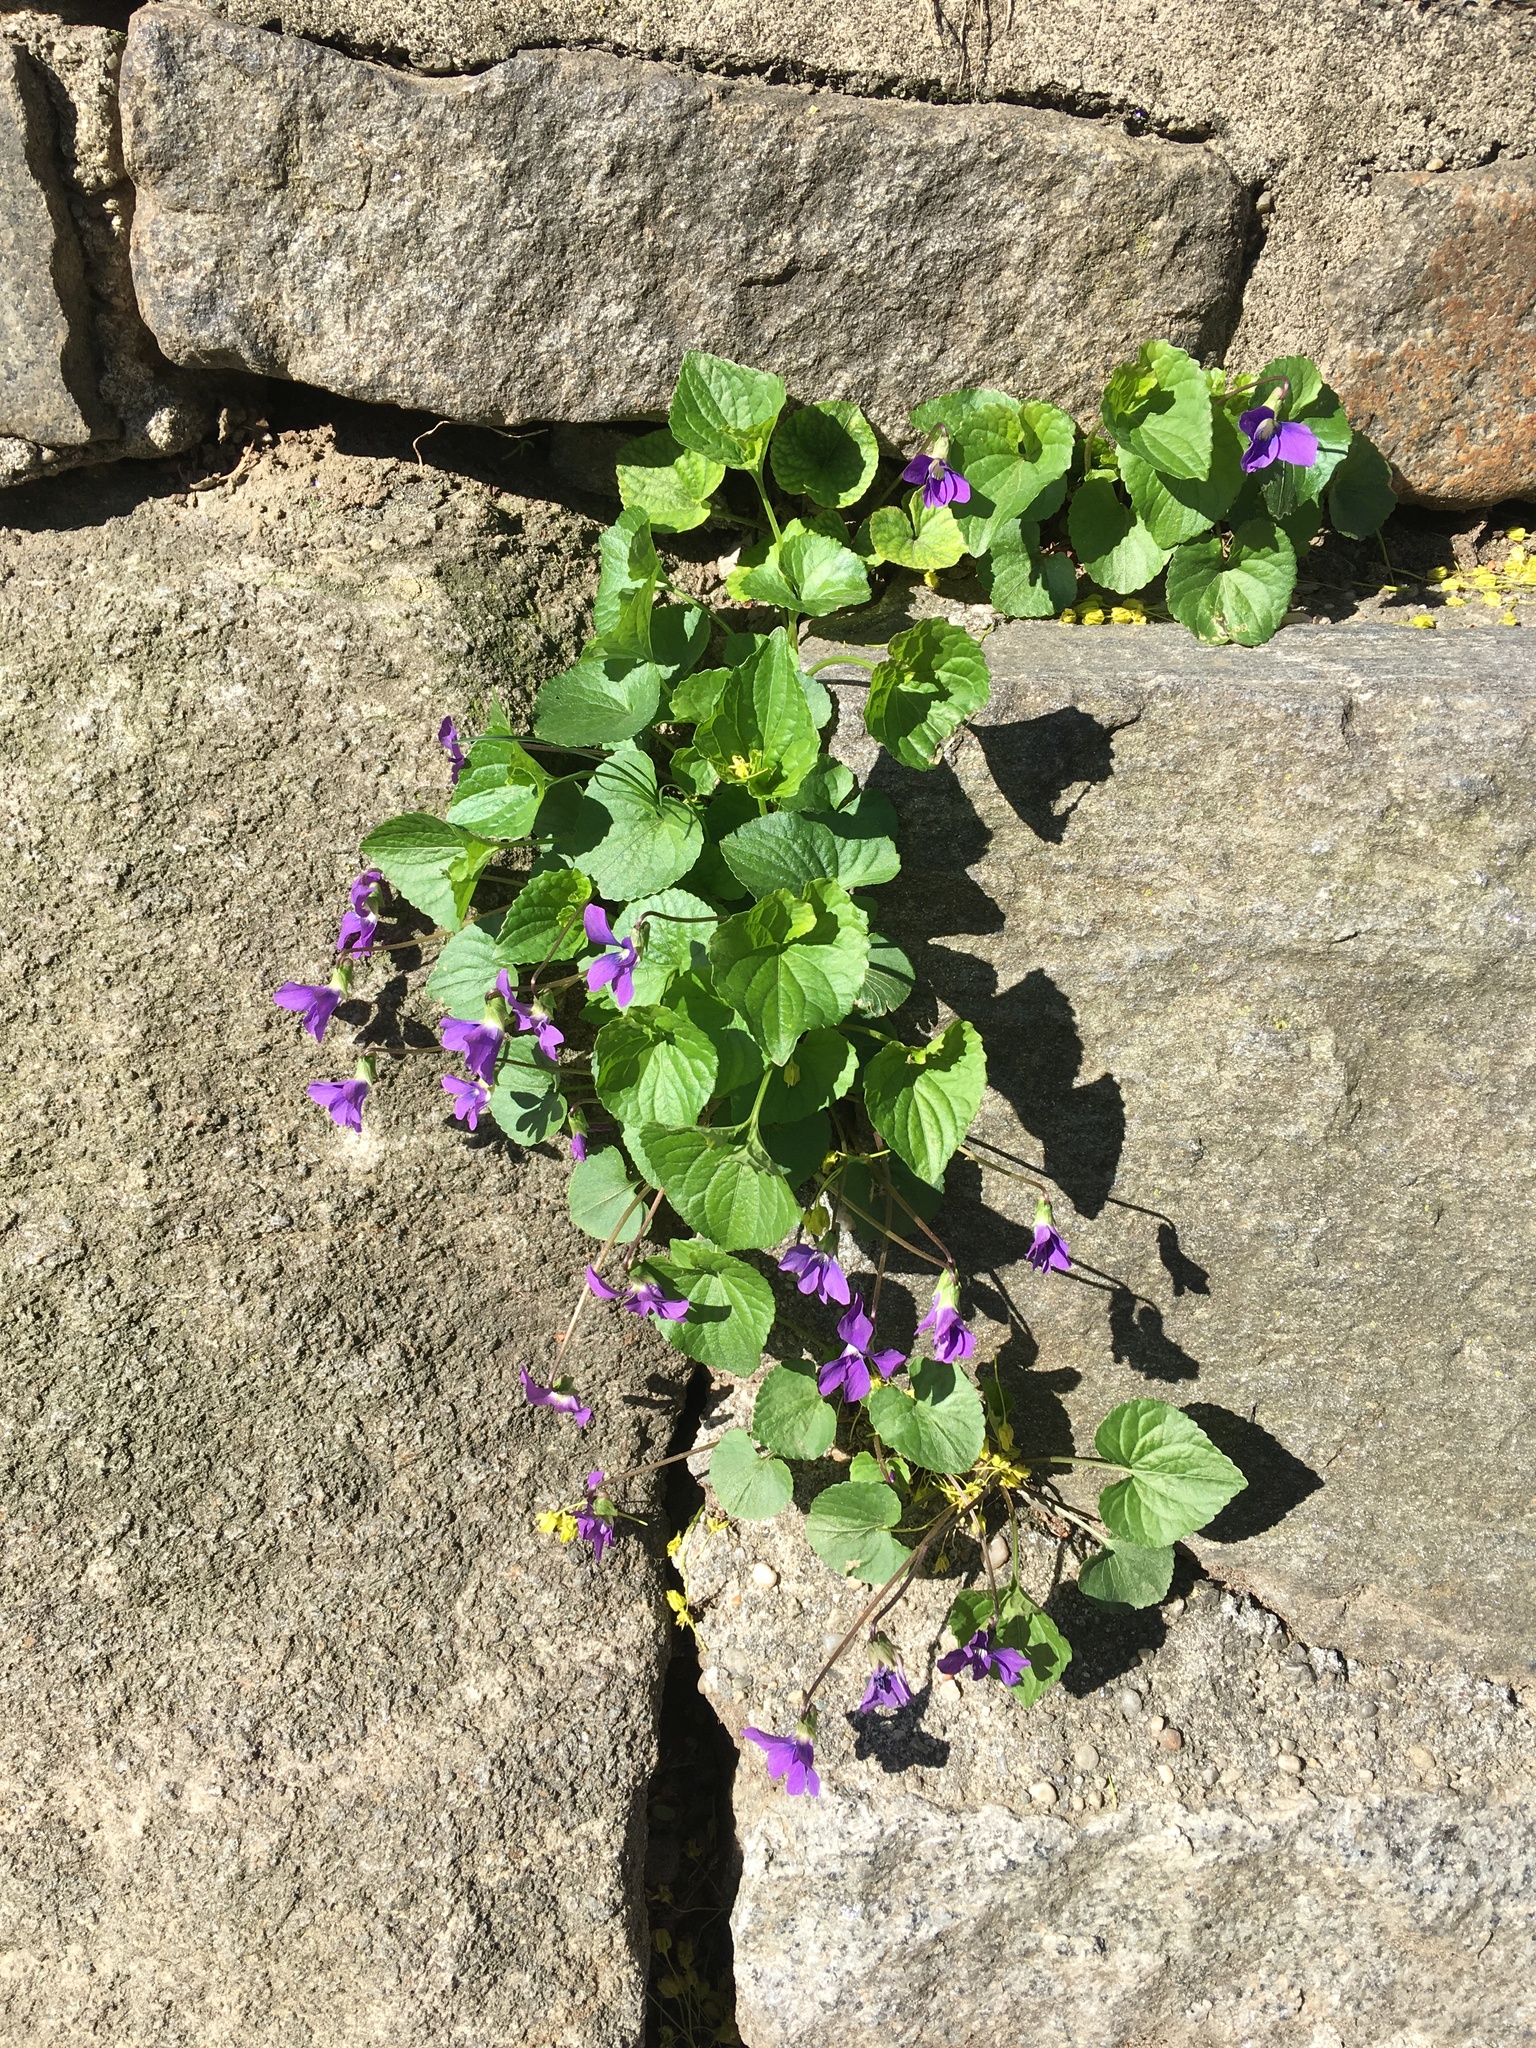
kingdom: Plantae
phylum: Tracheophyta
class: Magnoliopsida
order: Malpighiales
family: Violaceae
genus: Viola
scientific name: Viola sororia
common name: Dooryard violet
